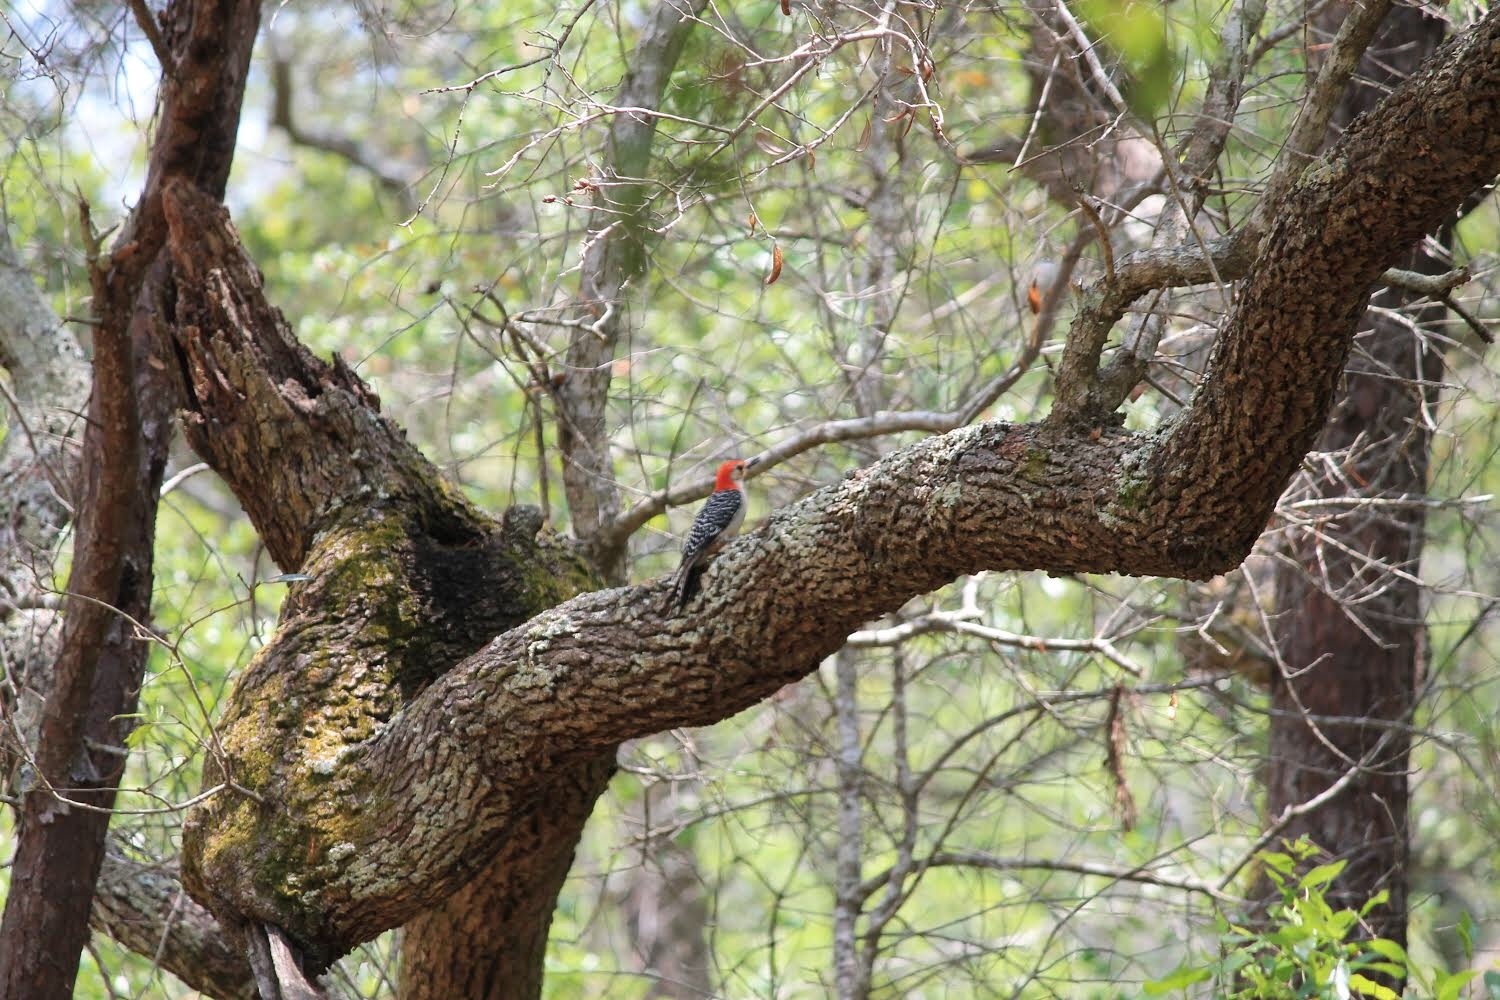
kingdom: Animalia
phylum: Chordata
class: Aves
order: Piciformes
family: Picidae
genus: Melanerpes
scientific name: Melanerpes carolinus
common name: Red-bellied woodpecker
